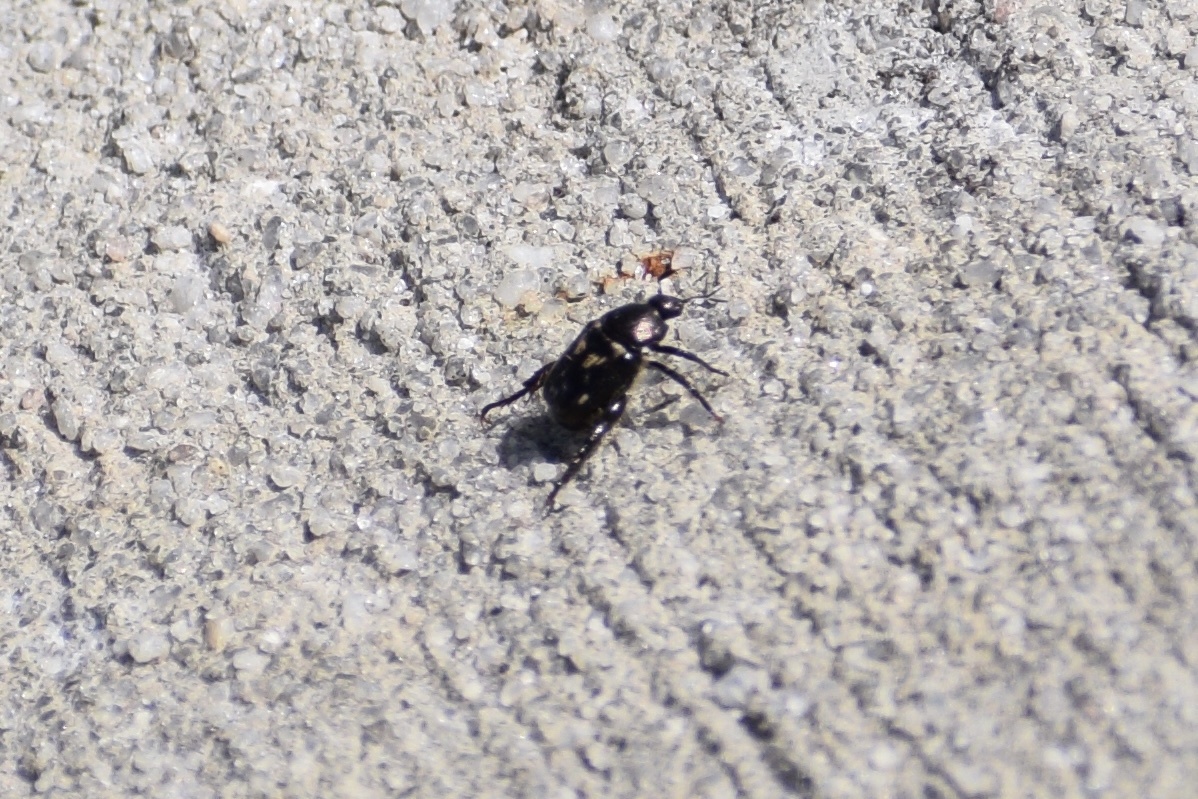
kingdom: Animalia
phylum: Arthropoda
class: Insecta
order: Coleoptera
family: Scarabaeidae
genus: Strigoderma
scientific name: Strigoderma pygmaea
